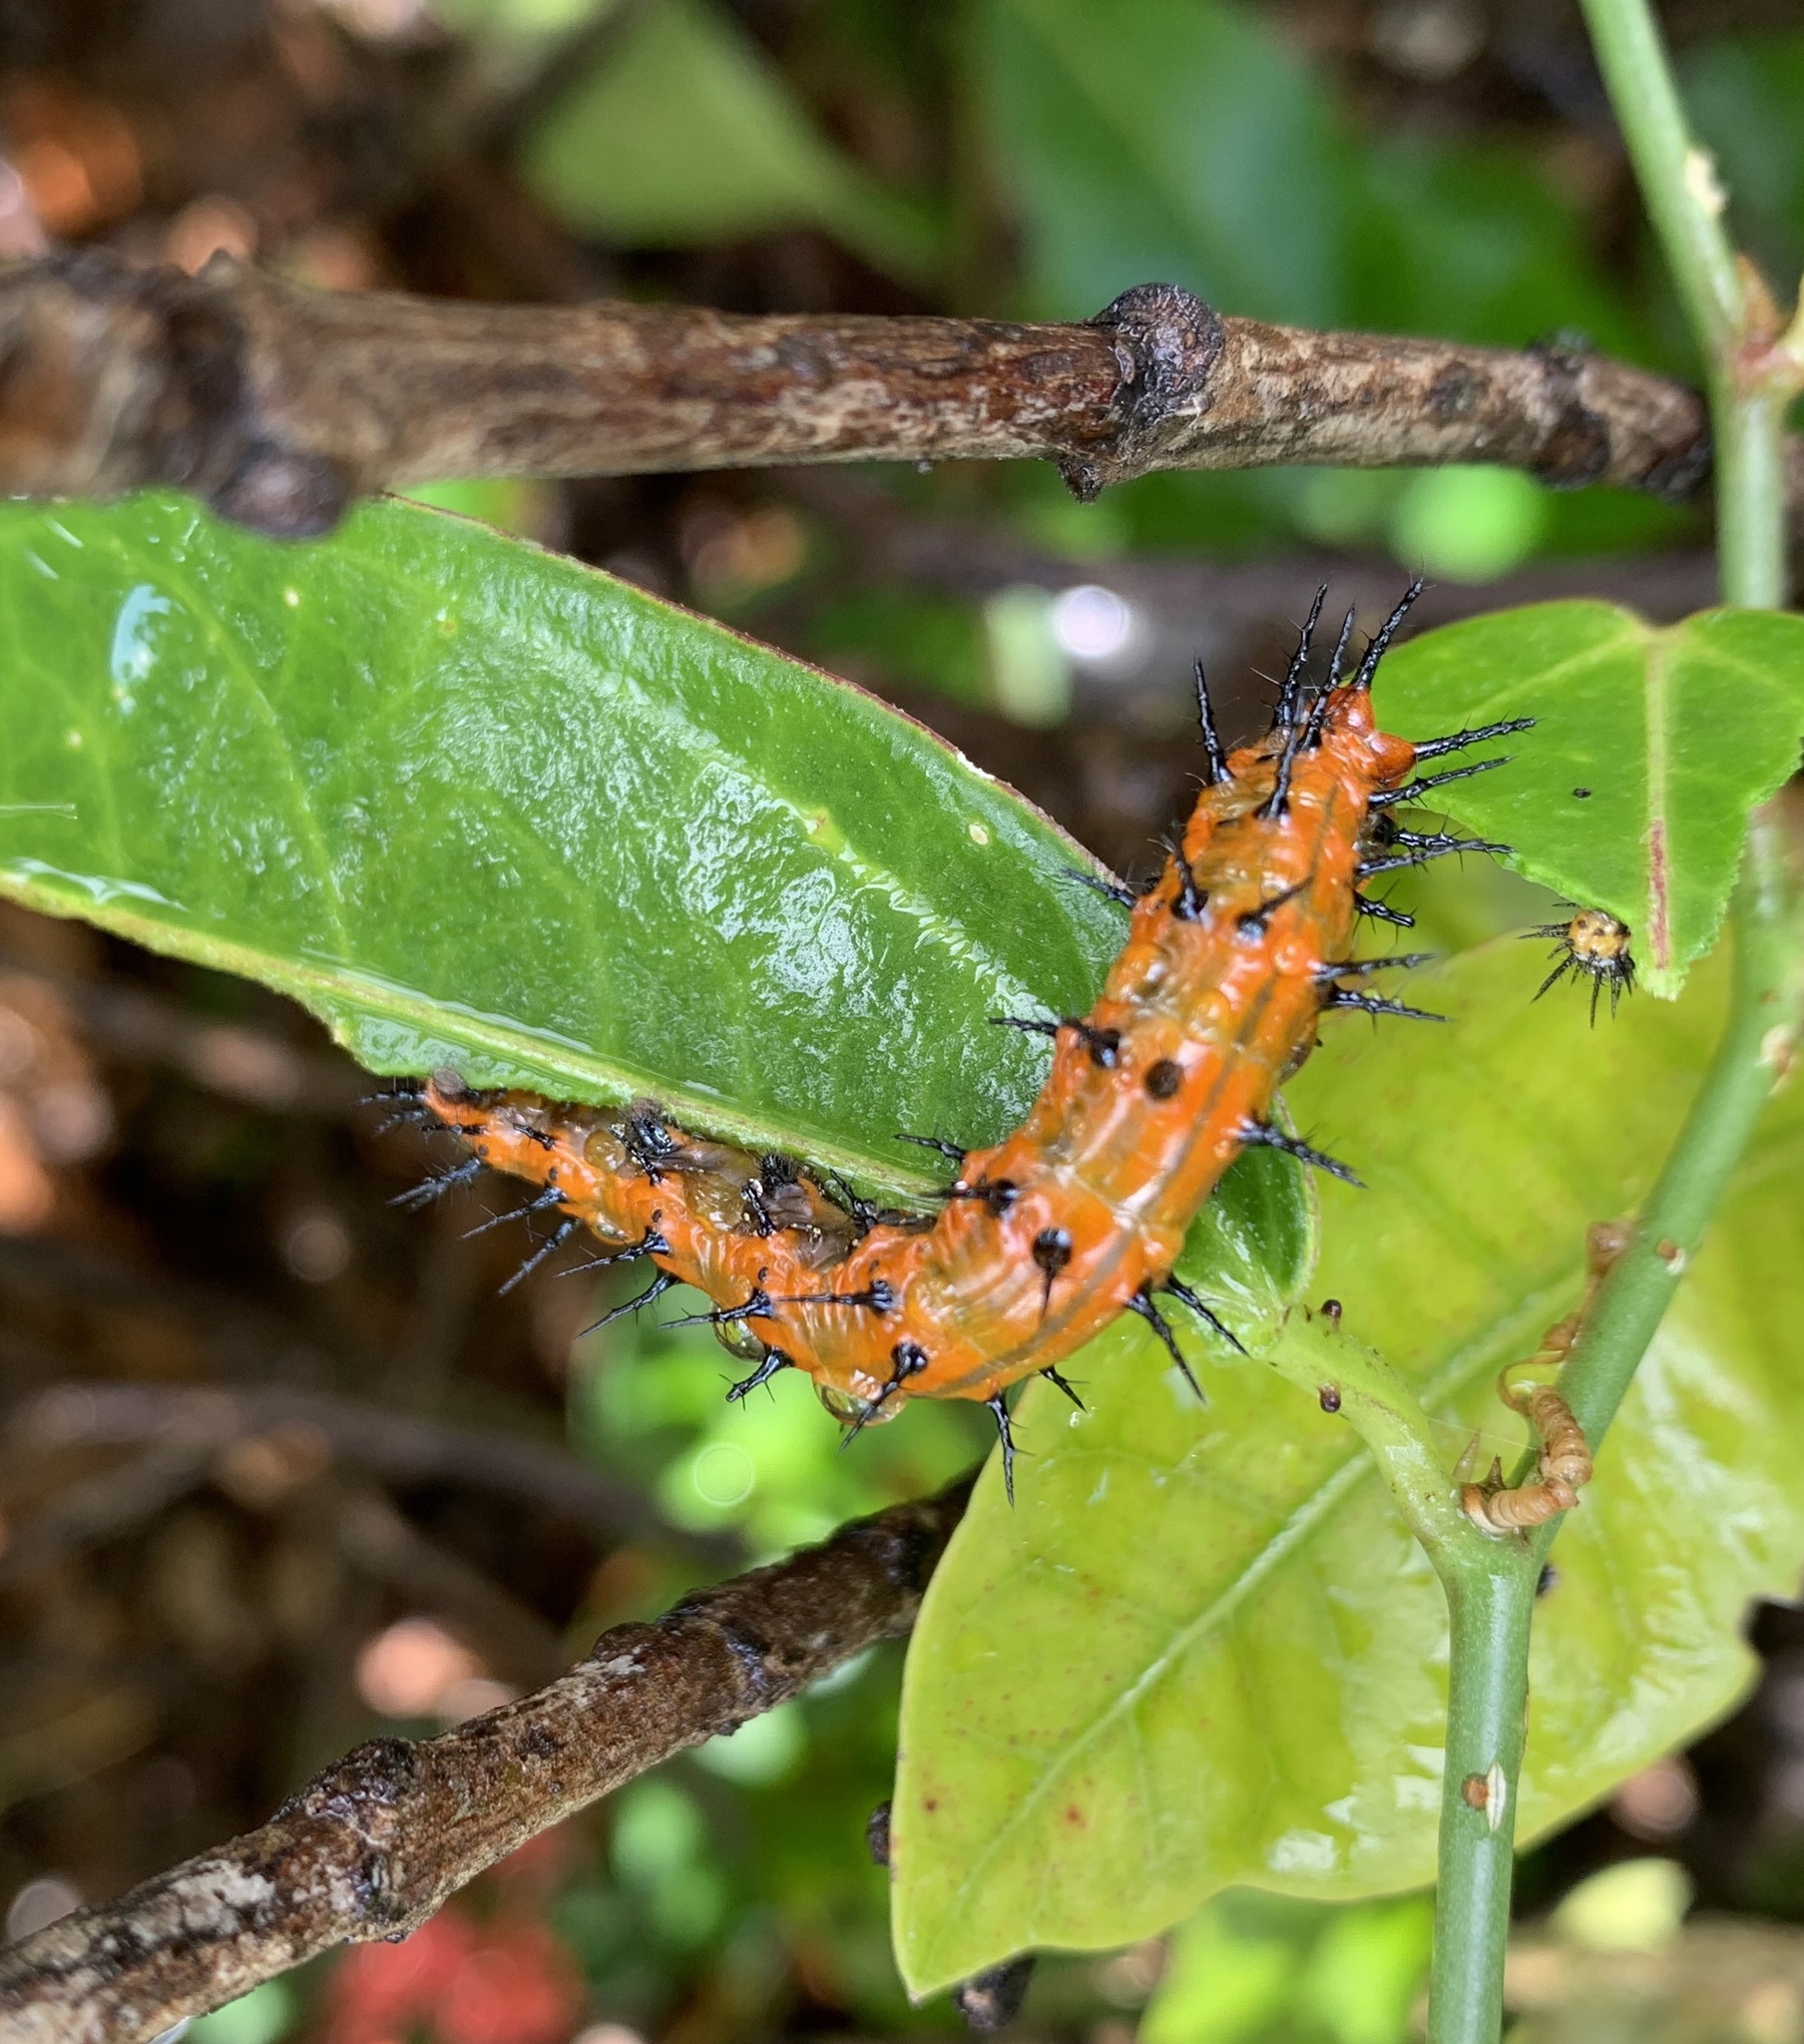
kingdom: Animalia
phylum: Arthropoda
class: Insecta
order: Lepidoptera
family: Nymphalidae
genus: Dione
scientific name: Dione vanillae
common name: Gulf fritillary
